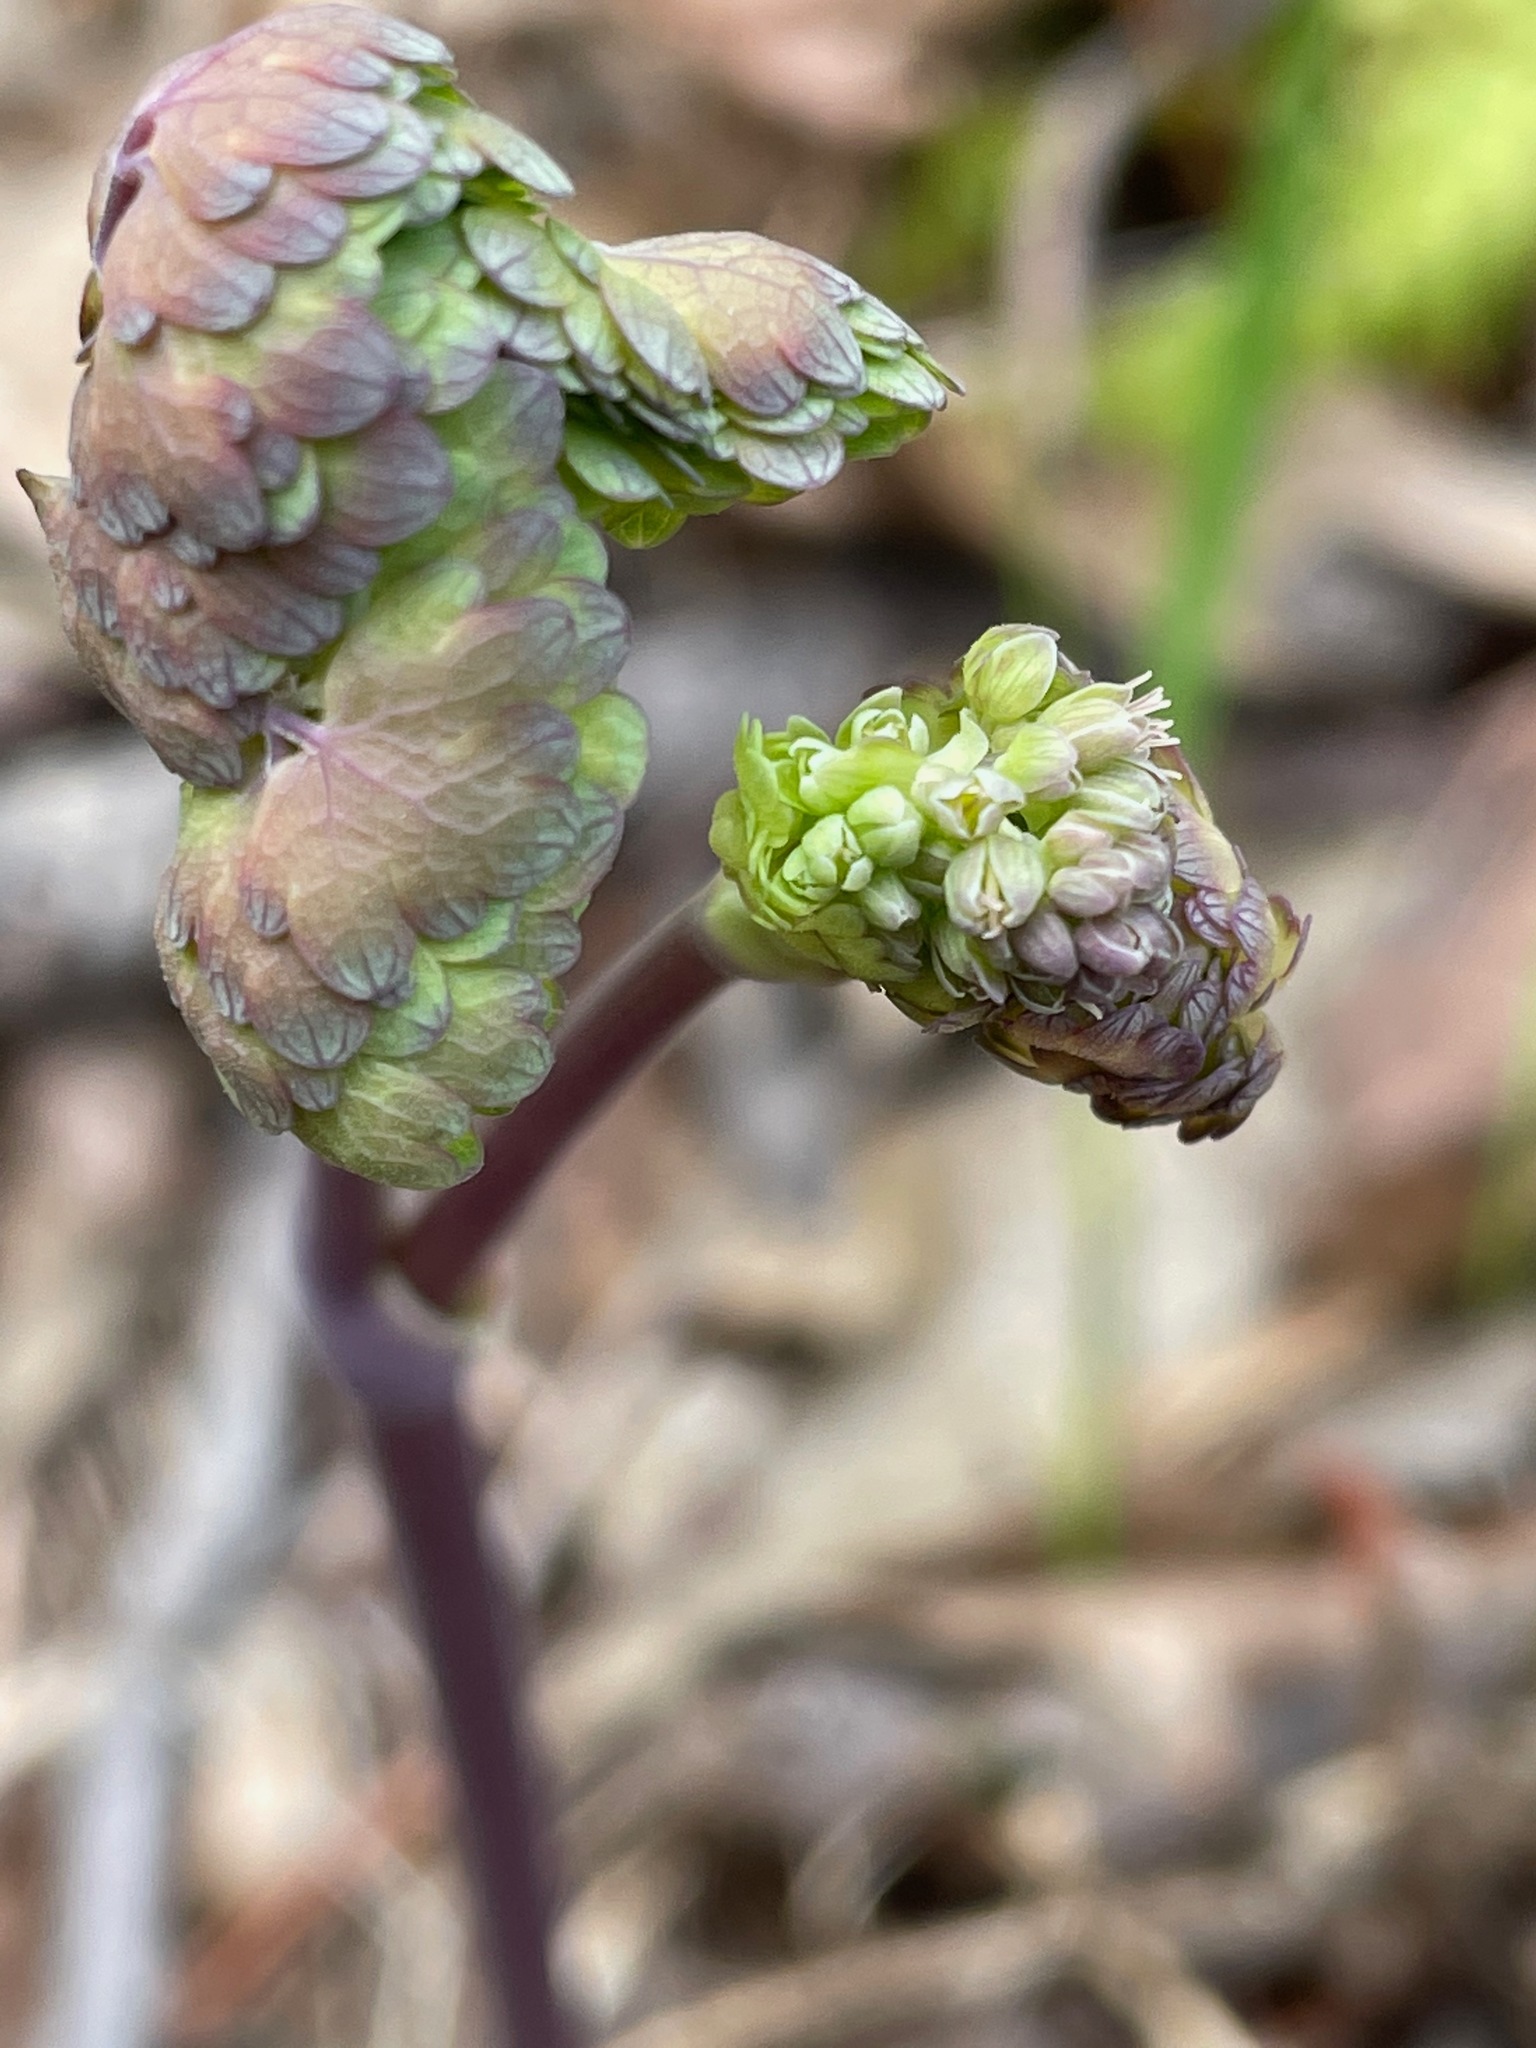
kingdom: Plantae
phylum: Tracheophyta
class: Magnoliopsida
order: Ranunculales
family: Ranunculaceae
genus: Thalictrum
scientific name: Thalictrum dioicum
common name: Early meadow-rue
